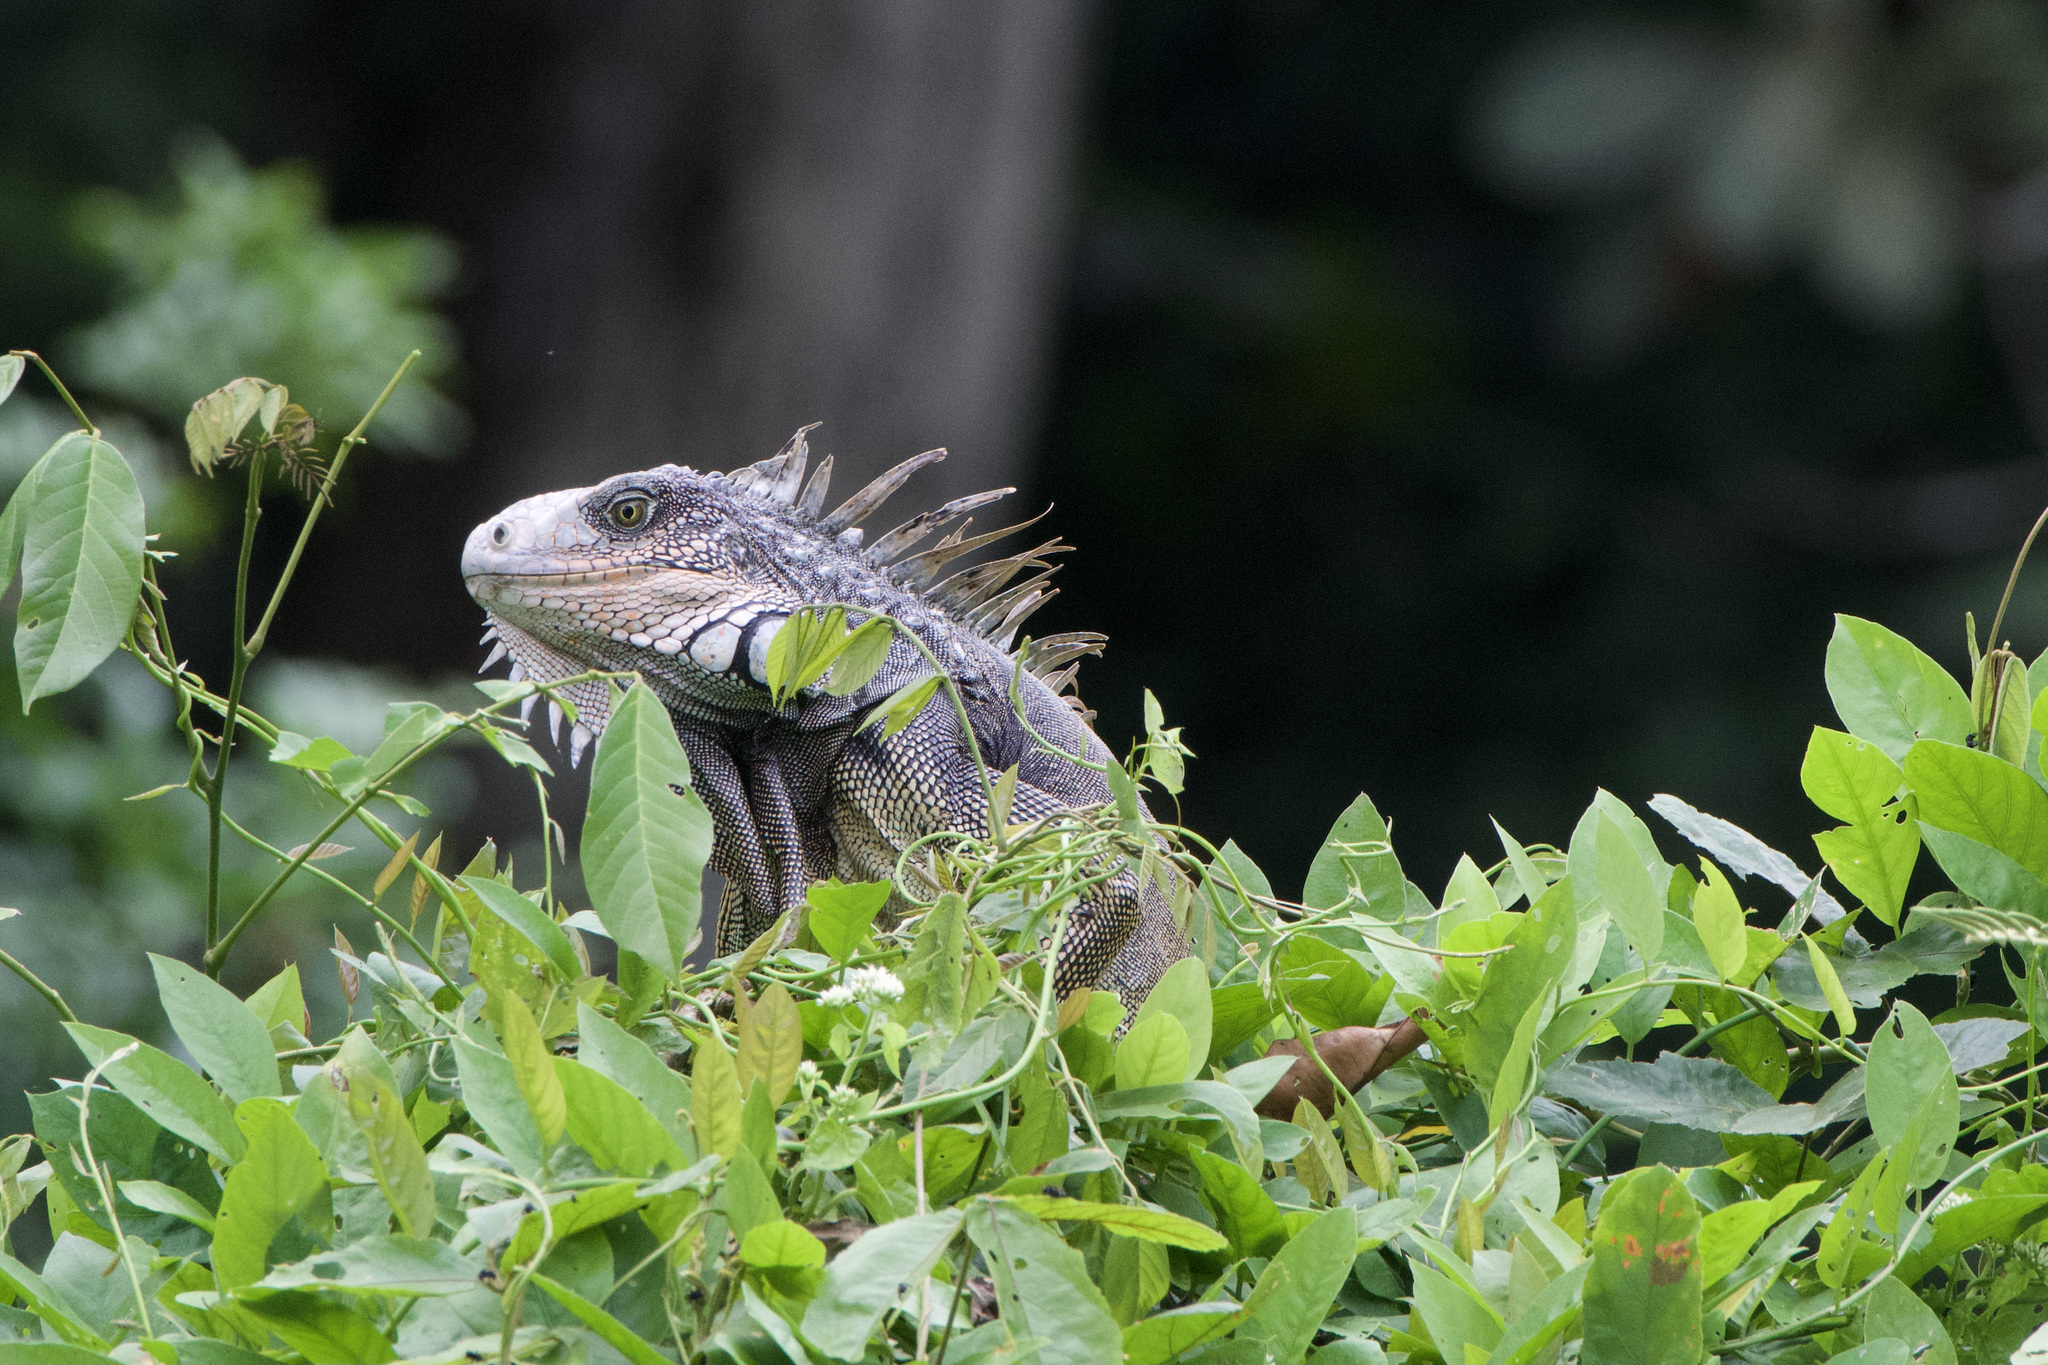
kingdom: Animalia
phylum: Chordata
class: Squamata
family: Iguanidae
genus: Iguana
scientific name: Iguana iguana
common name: Green iguana
